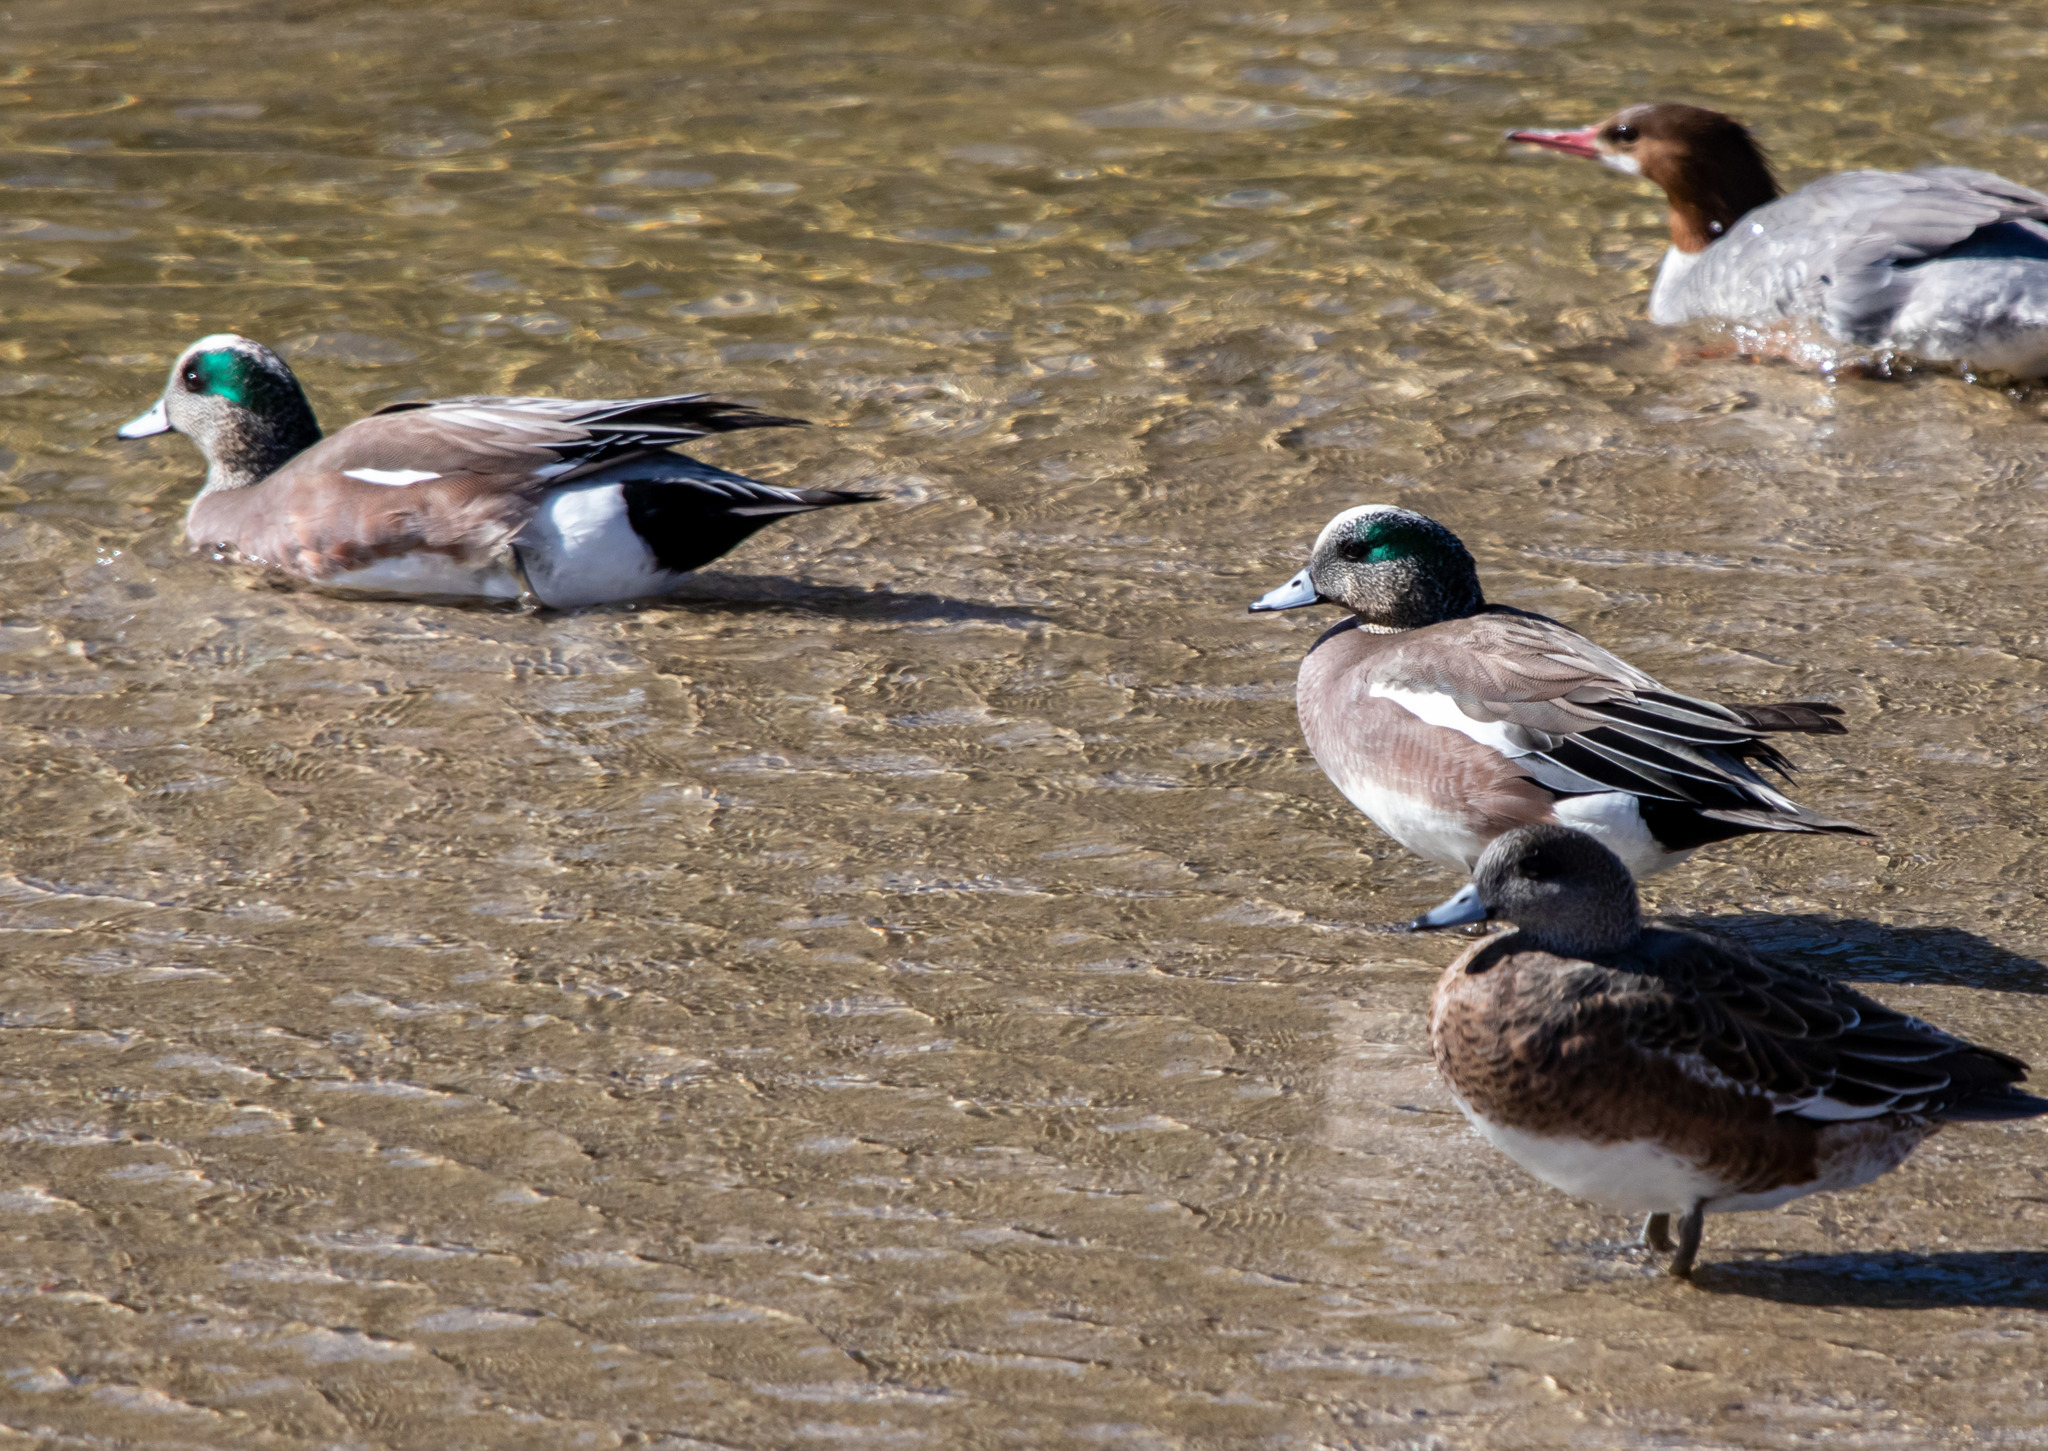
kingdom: Animalia
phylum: Chordata
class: Aves
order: Anseriformes
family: Anatidae
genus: Mareca
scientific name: Mareca americana
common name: American wigeon
